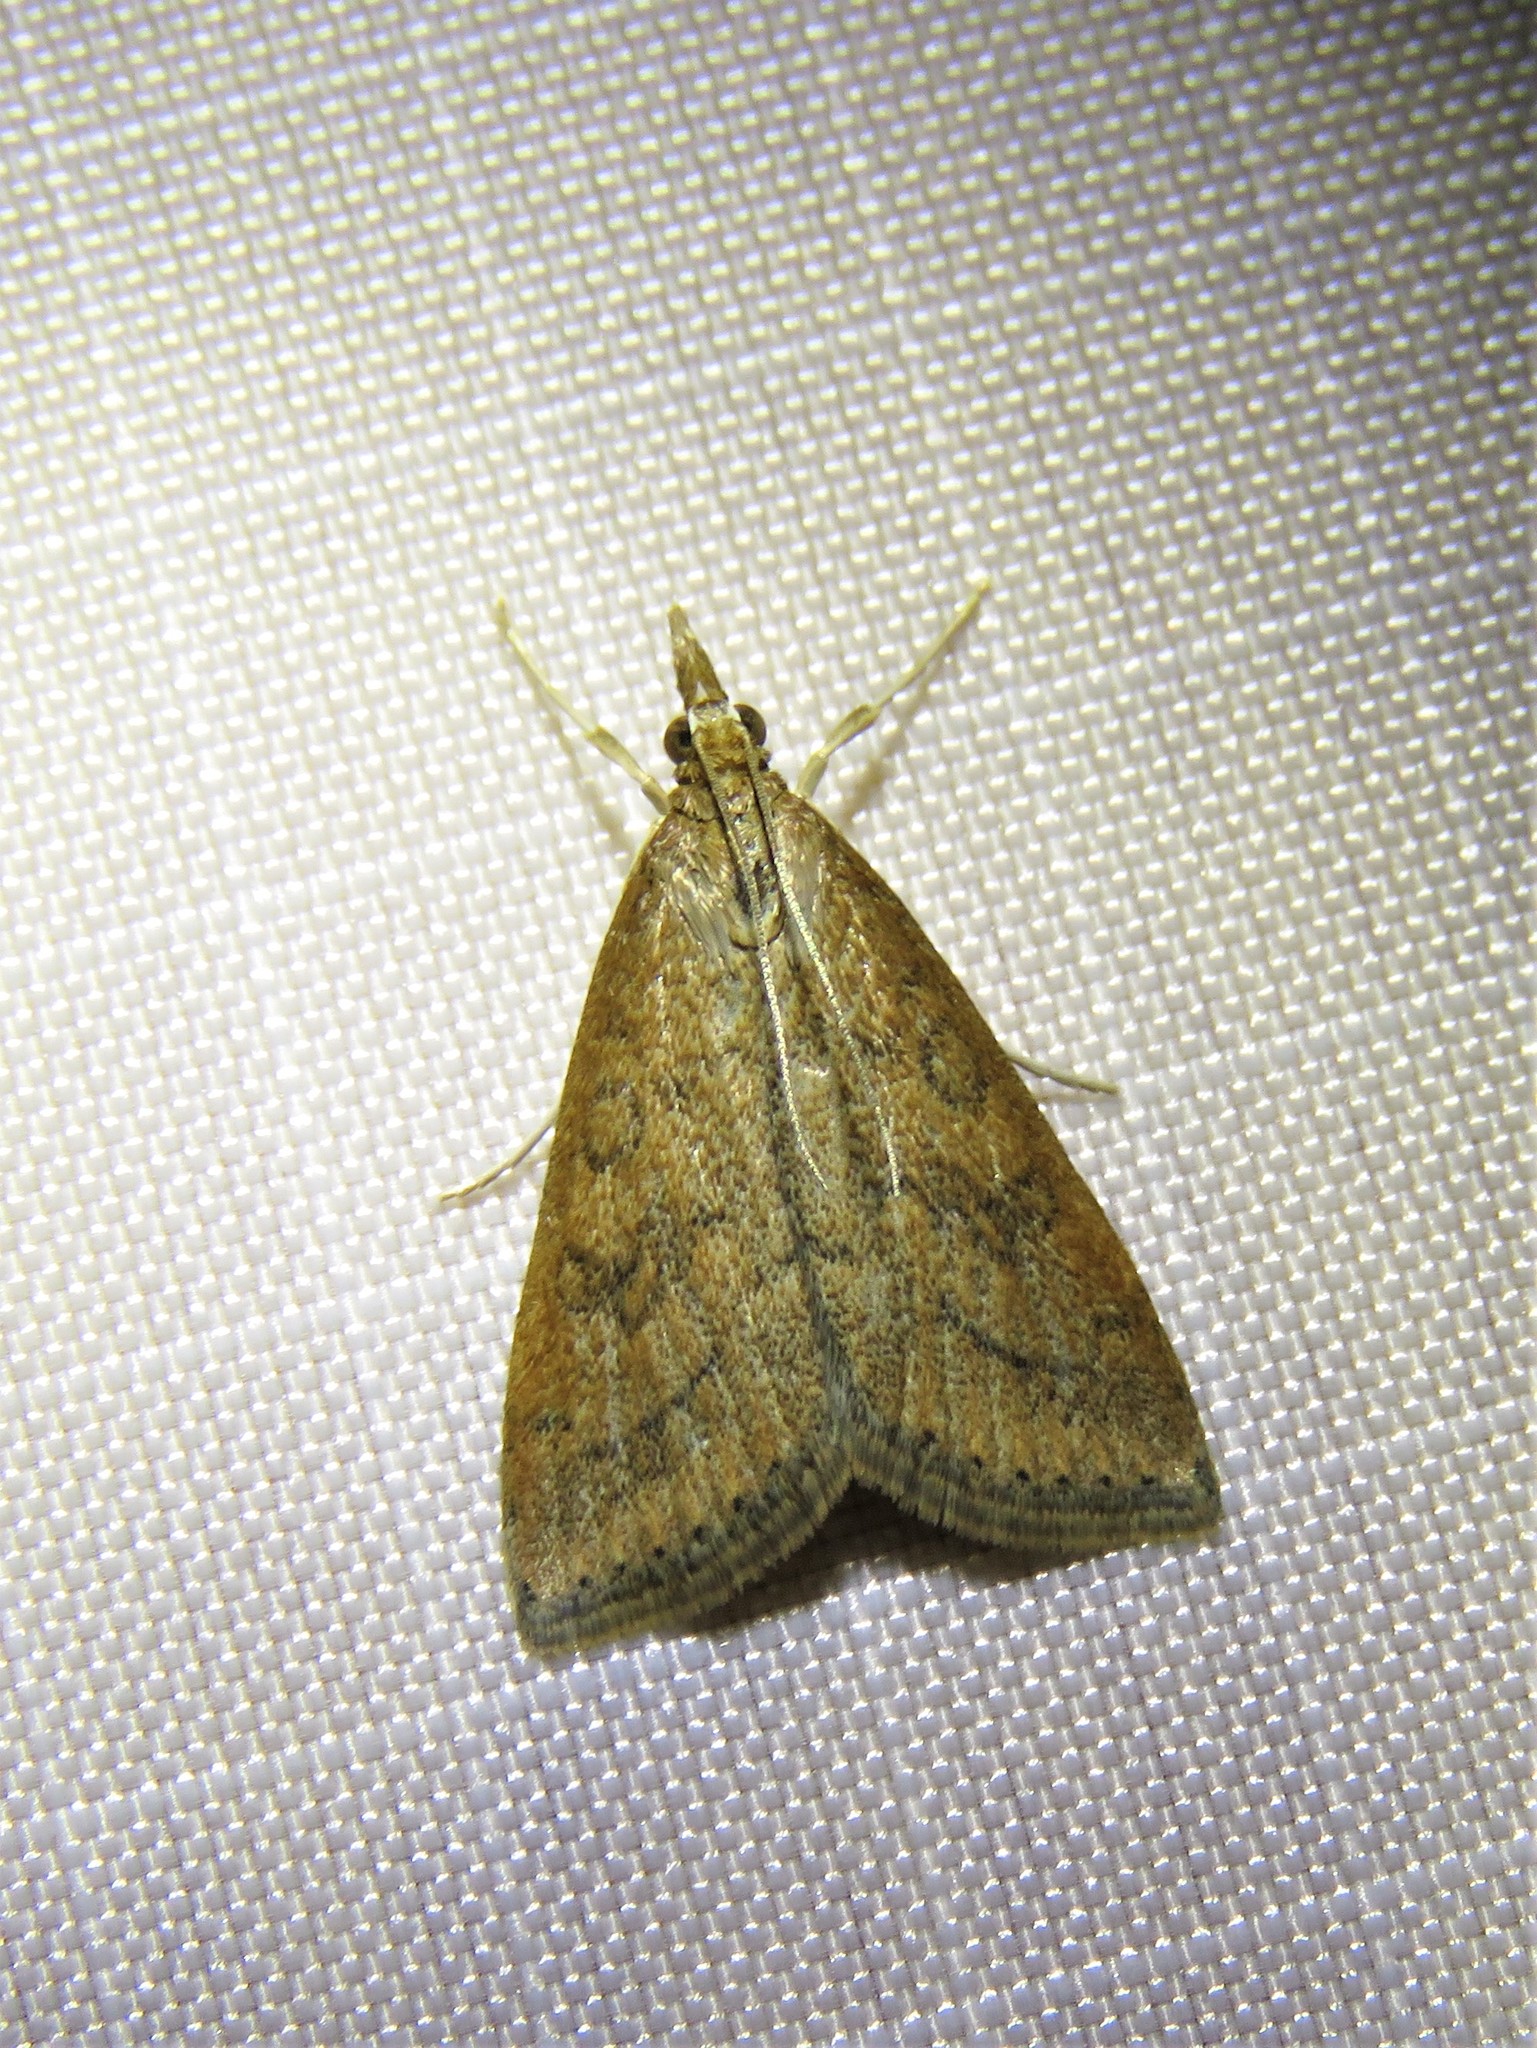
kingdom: Animalia
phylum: Arthropoda
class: Insecta
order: Lepidoptera
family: Crambidae
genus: Udea
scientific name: Udea rubigalis
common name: Celery leaftier moth
